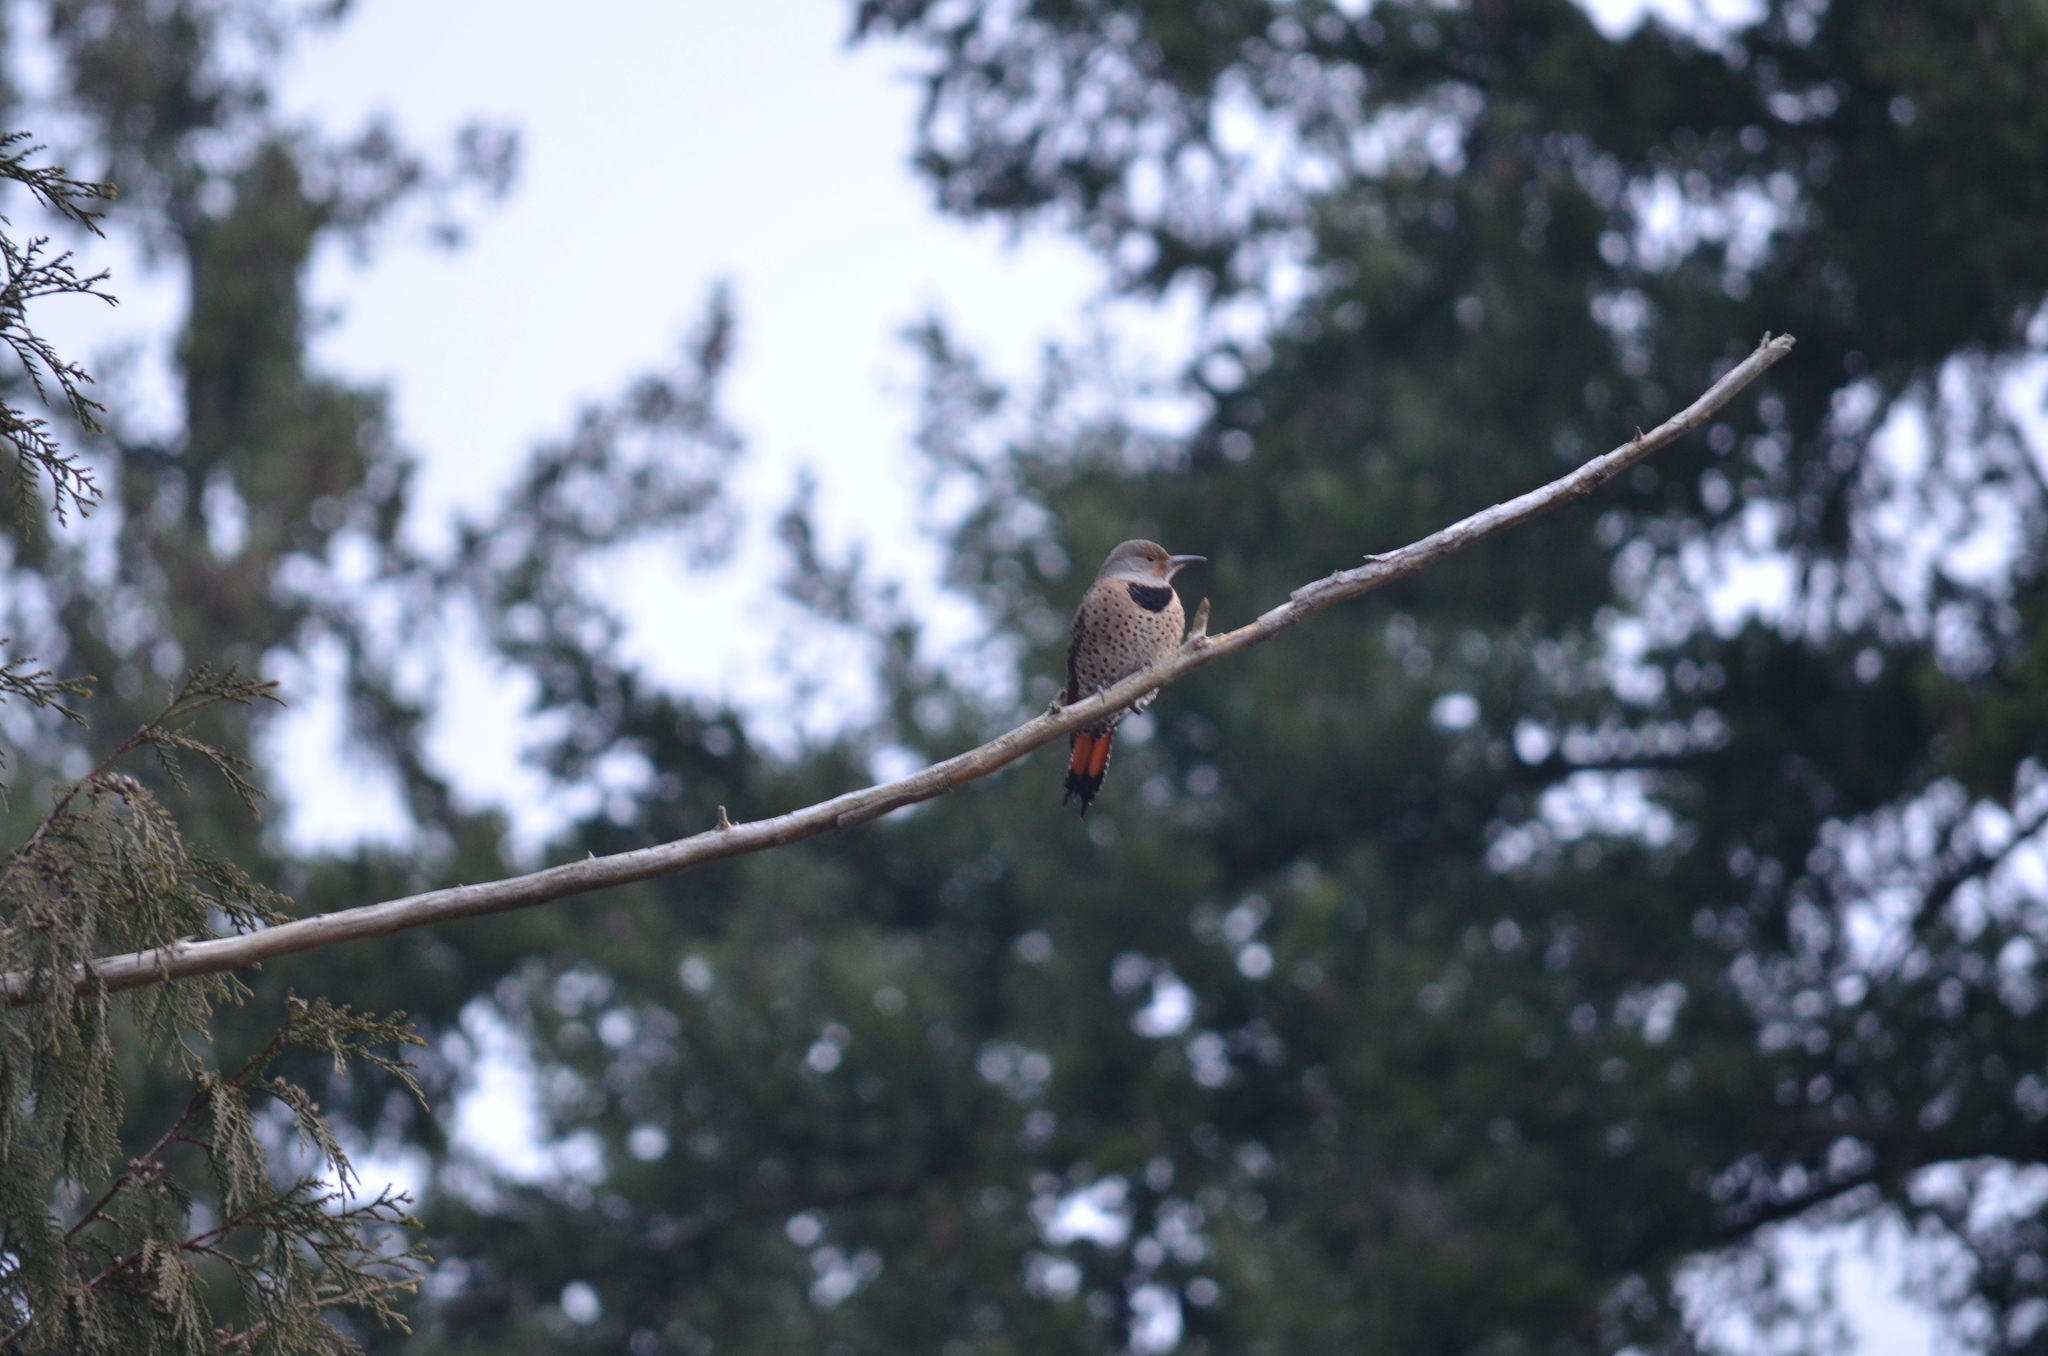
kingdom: Animalia
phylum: Chordata
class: Aves
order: Piciformes
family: Picidae
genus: Colaptes
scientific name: Colaptes auratus
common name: Northern flicker
